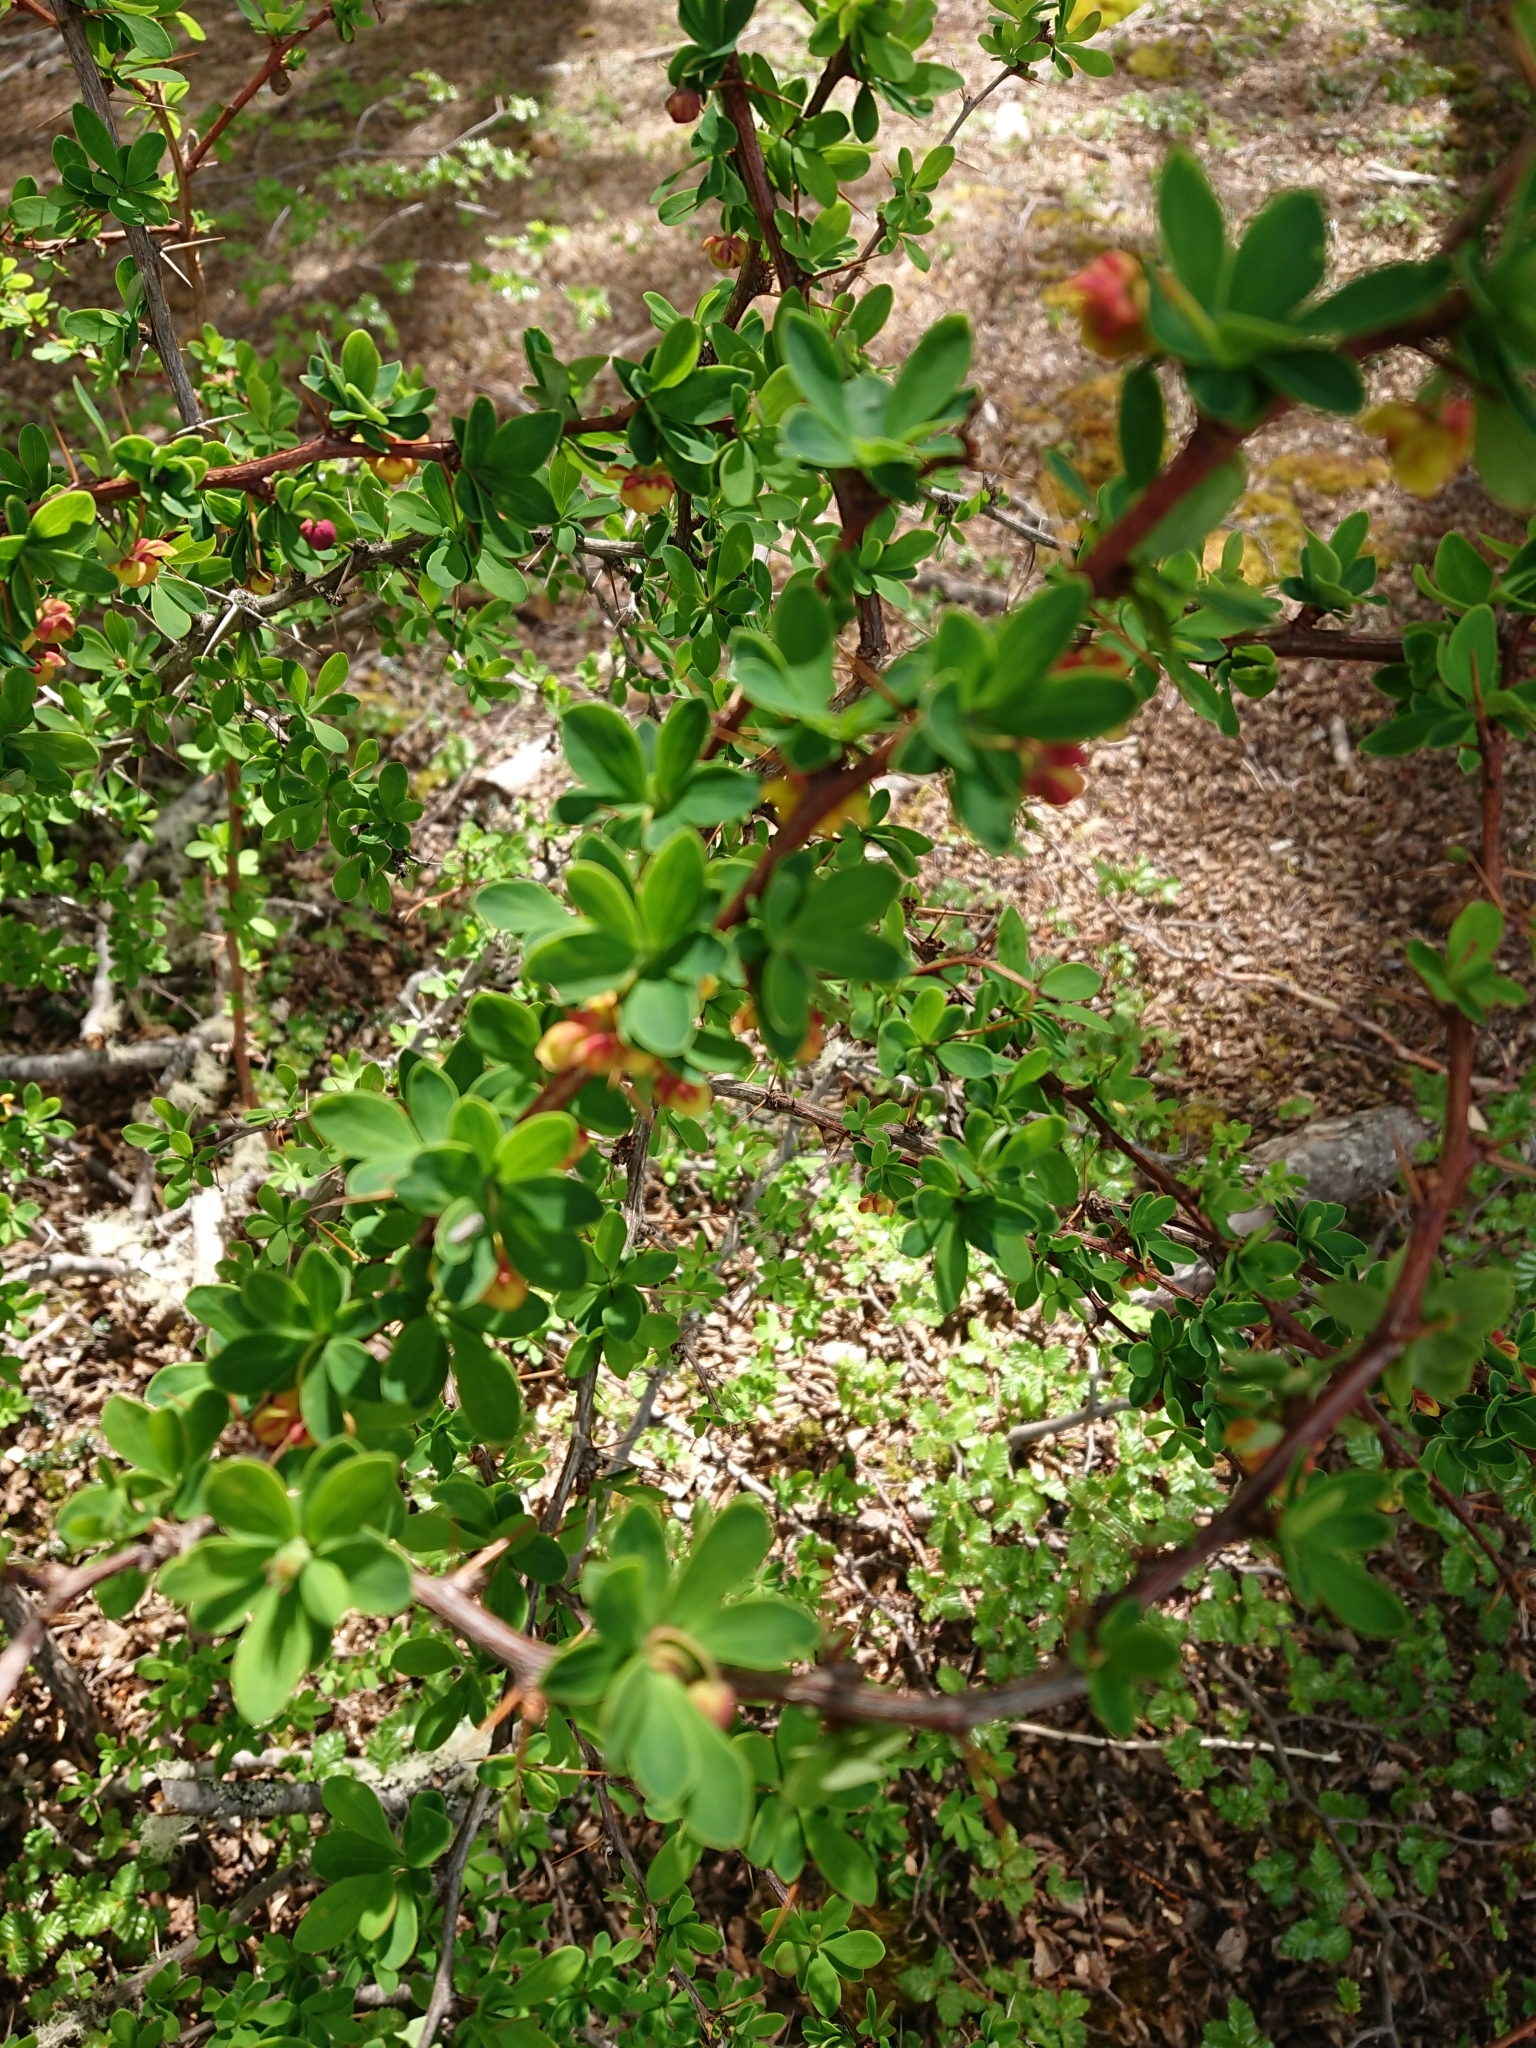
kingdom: Plantae
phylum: Tracheophyta
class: Magnoliopsida
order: Ranunculales
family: Berberidaceae
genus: Berberis
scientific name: Berberis microphylla
